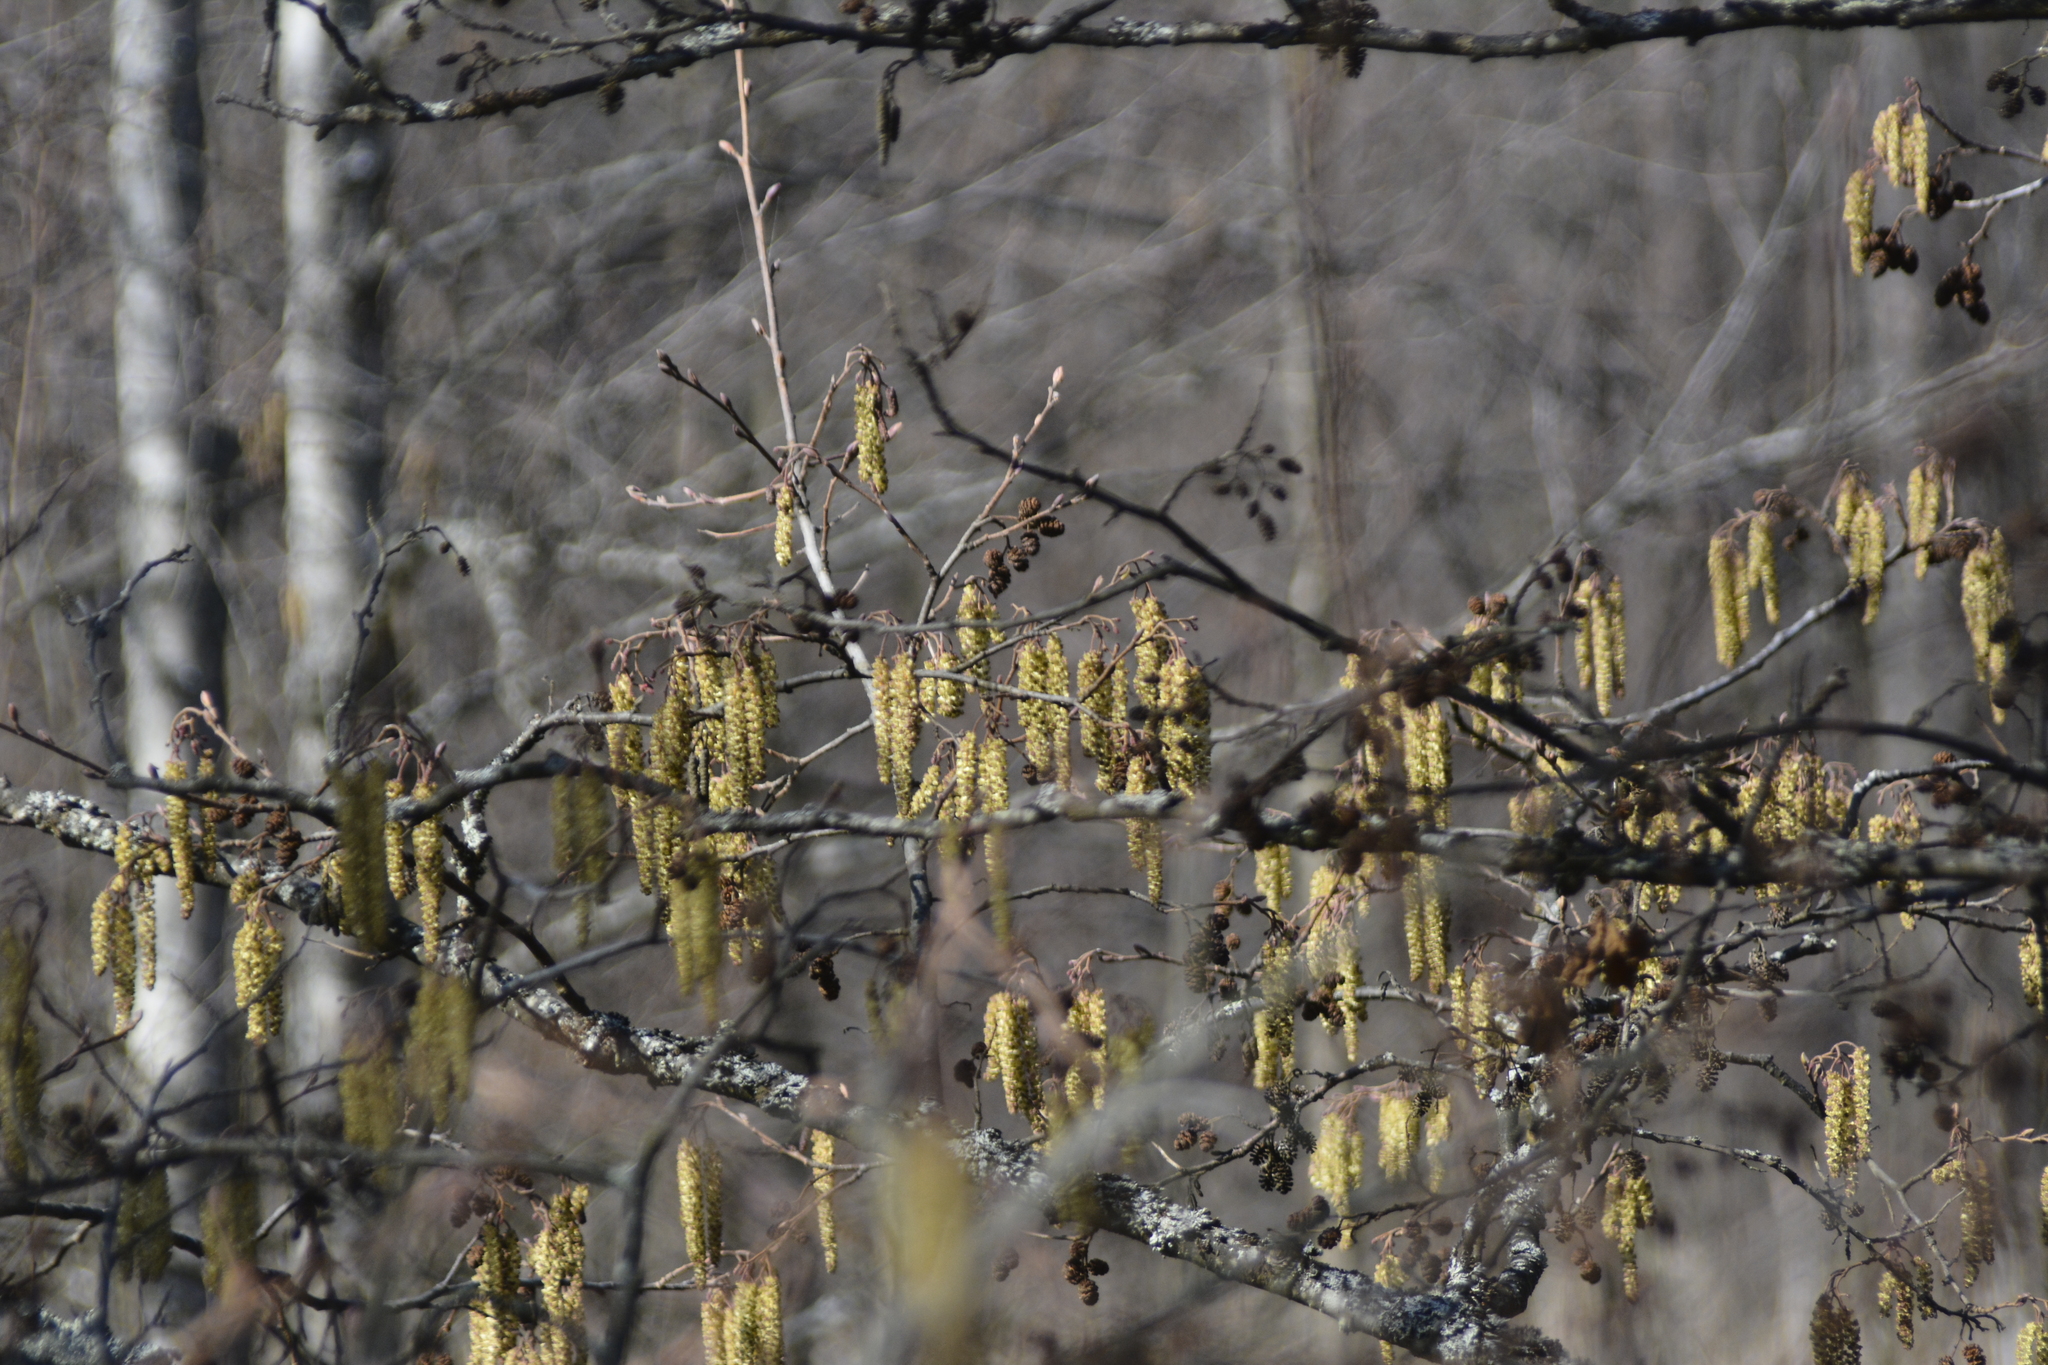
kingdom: Plantae
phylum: Tracheophyta
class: Magnoliopsida
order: Fagales
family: Betulaceae
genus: Alnus
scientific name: Alnus glutinosa
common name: Black alder
